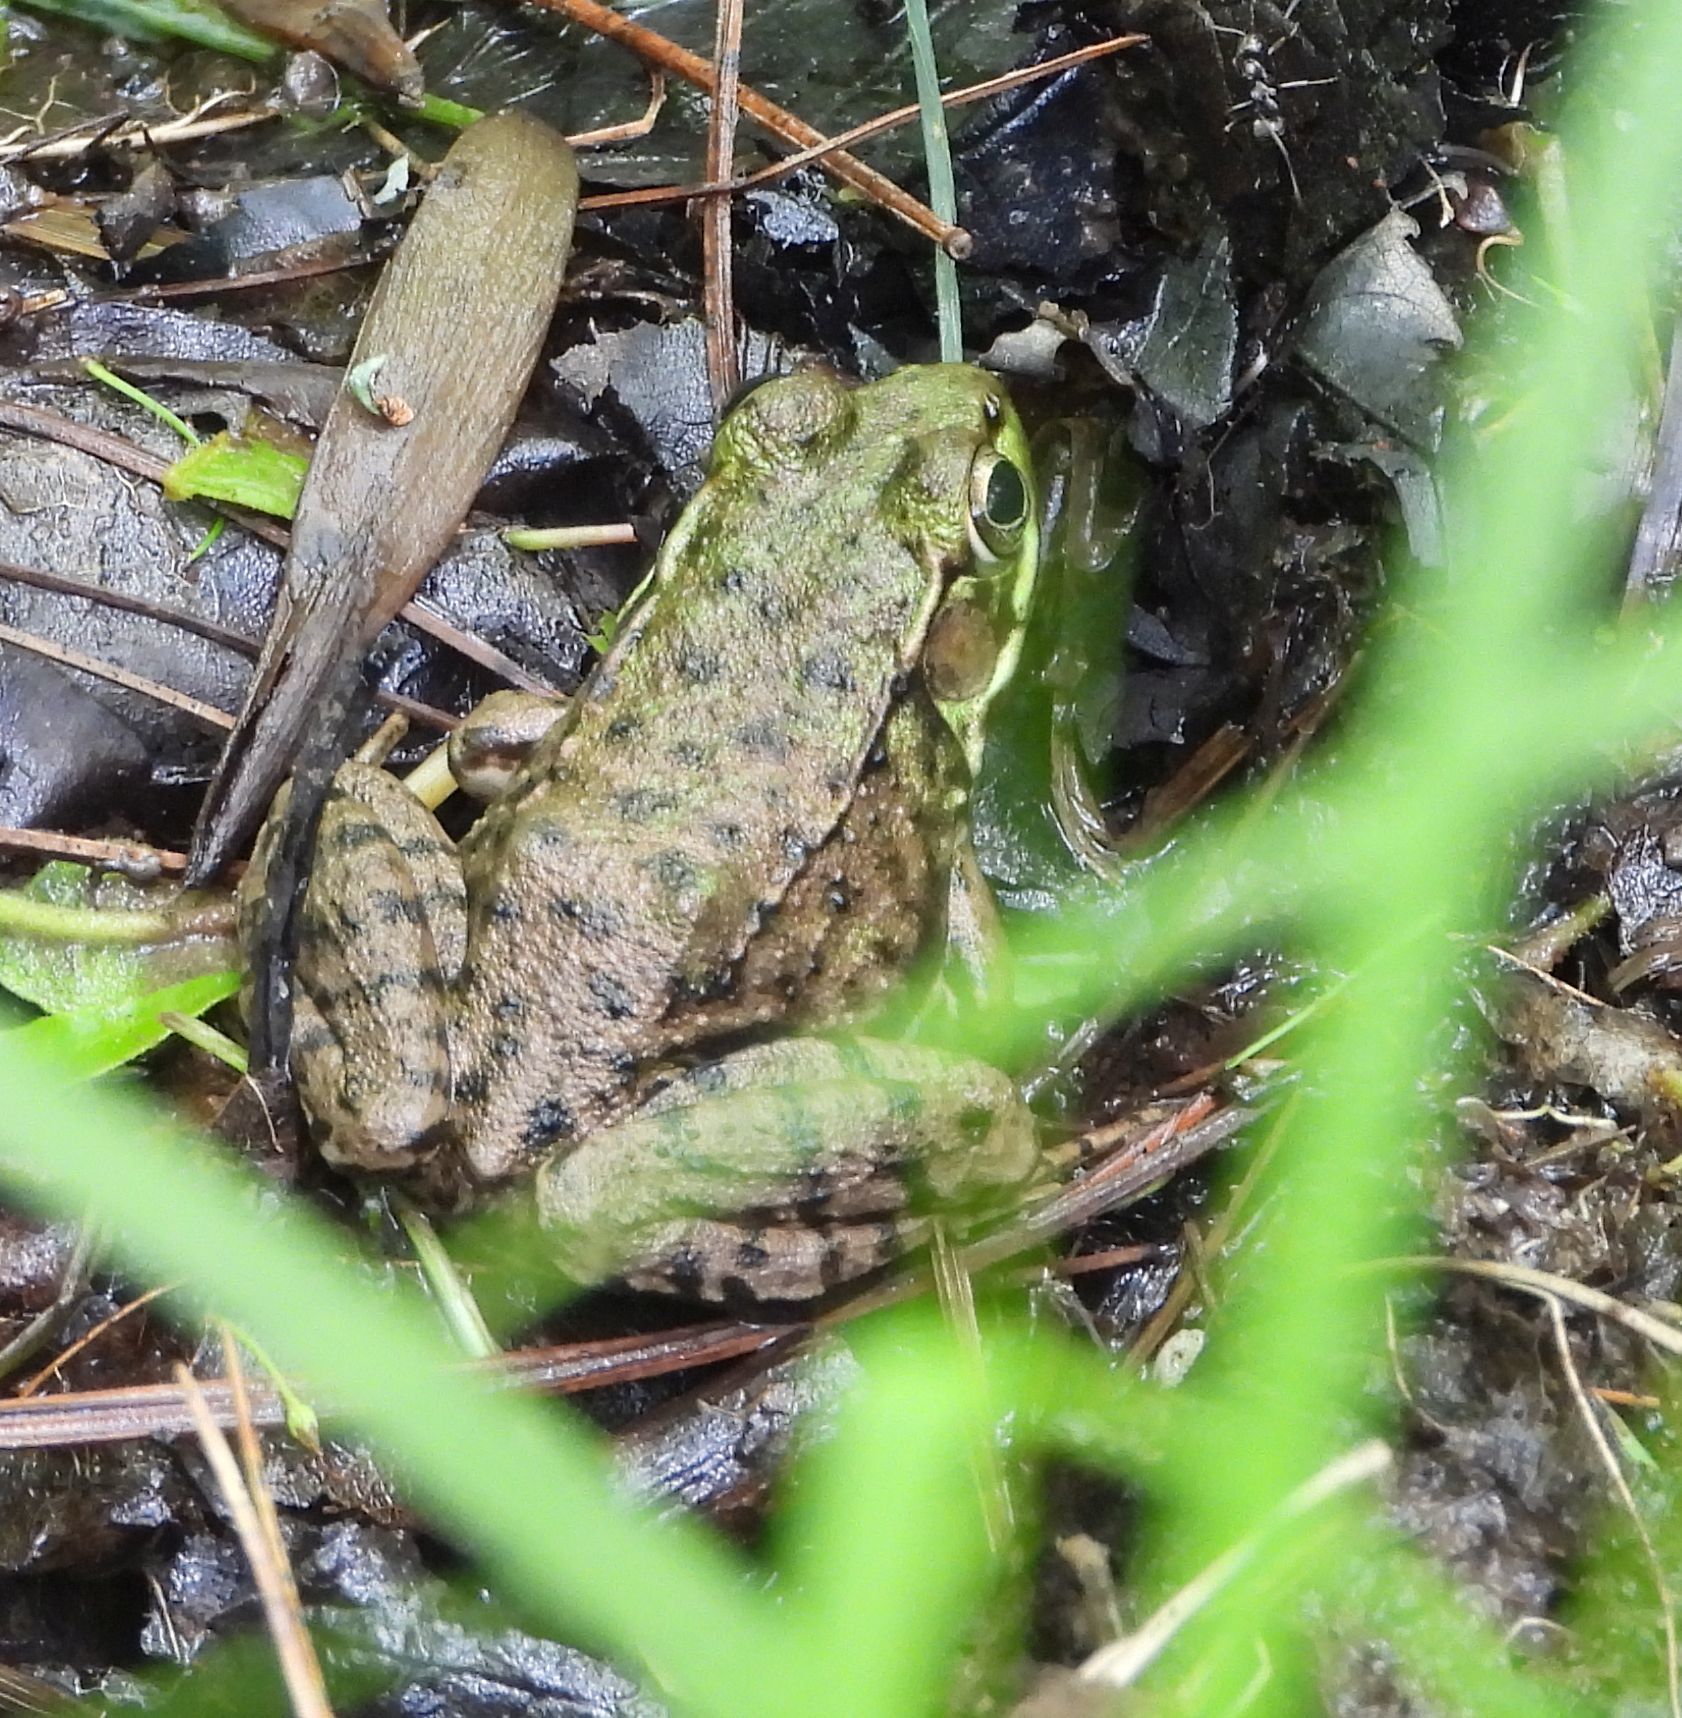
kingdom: Animalia
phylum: Chordata
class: Amphibia
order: Anura
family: Ranidae
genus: Lithobates
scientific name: Lithobates clamitans
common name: Green frog
